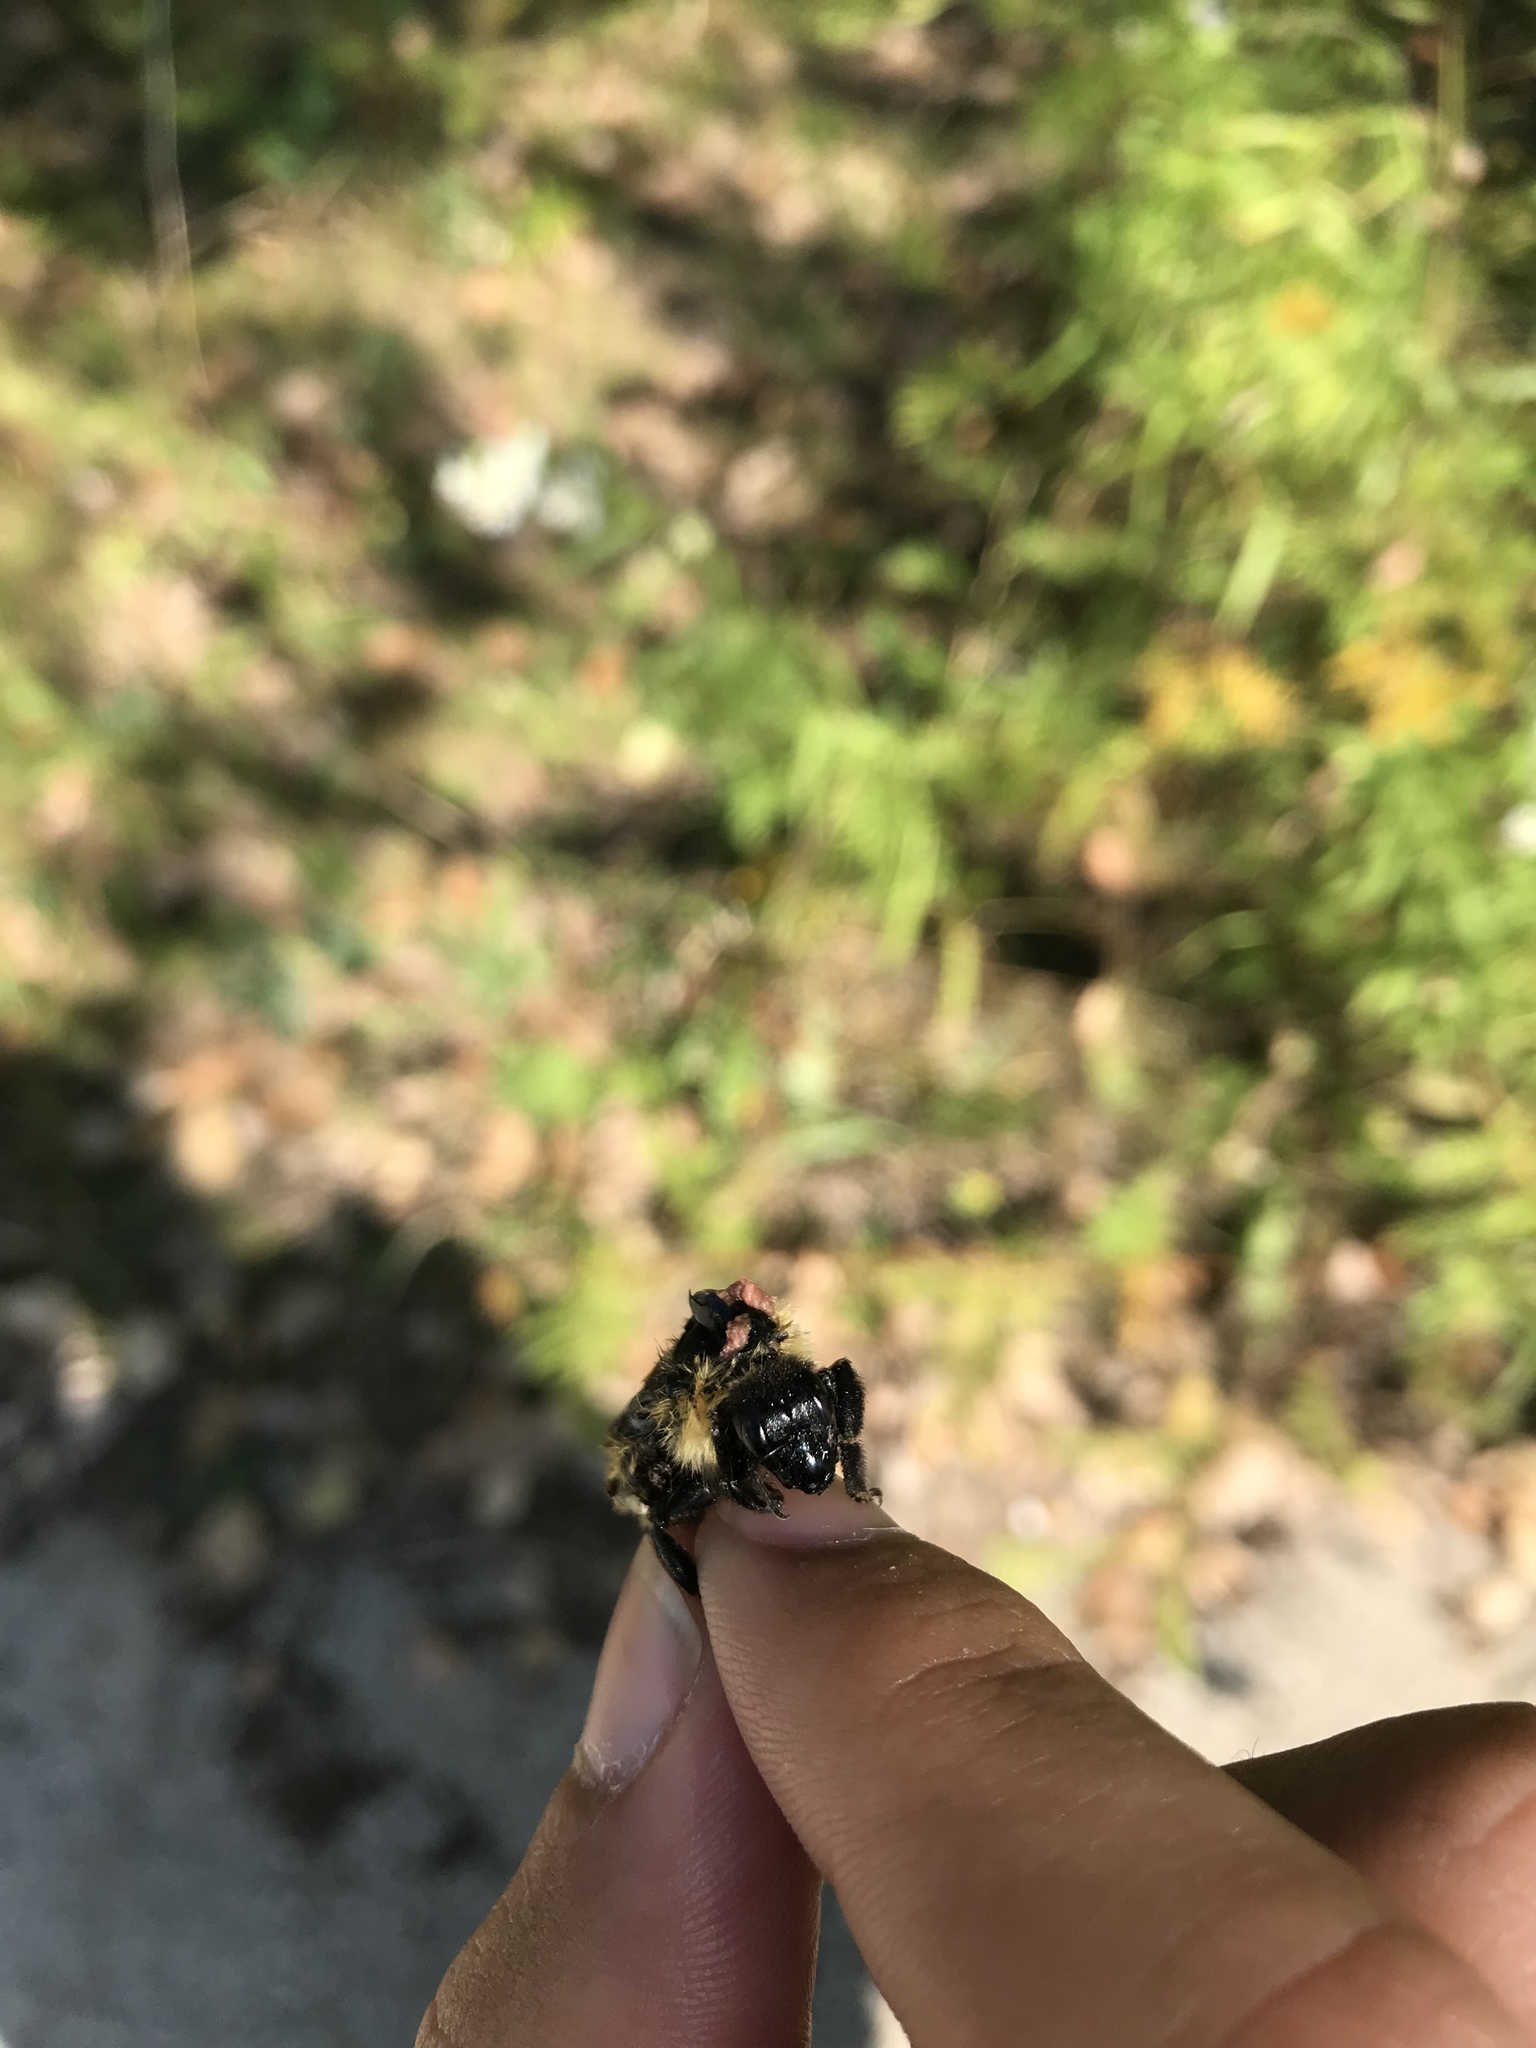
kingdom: Animalia
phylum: Arthropoda
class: Insecta
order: Hymenoptera
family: Apidae
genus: Bombus
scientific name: Bombus fervidus
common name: Yellow bumble bee
